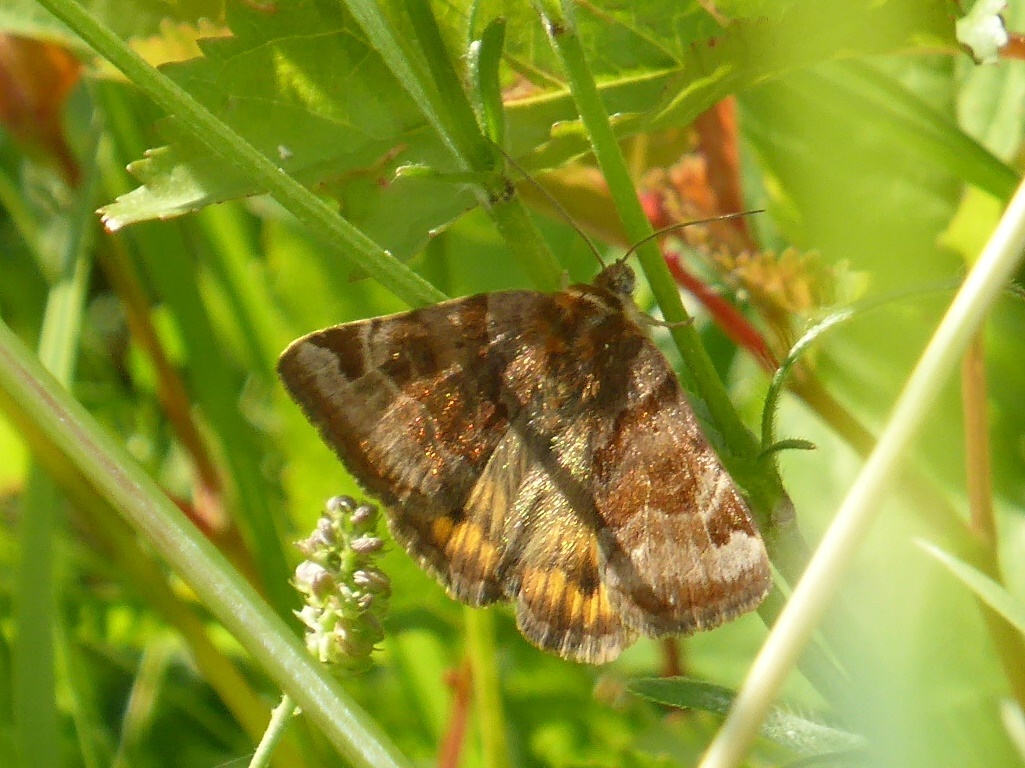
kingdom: Animalia
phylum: Arthropoda
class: Insecta
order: Lepidoptera
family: Erebidae
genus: Euclidia
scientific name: Euclidia glyphica
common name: Burnet companion
